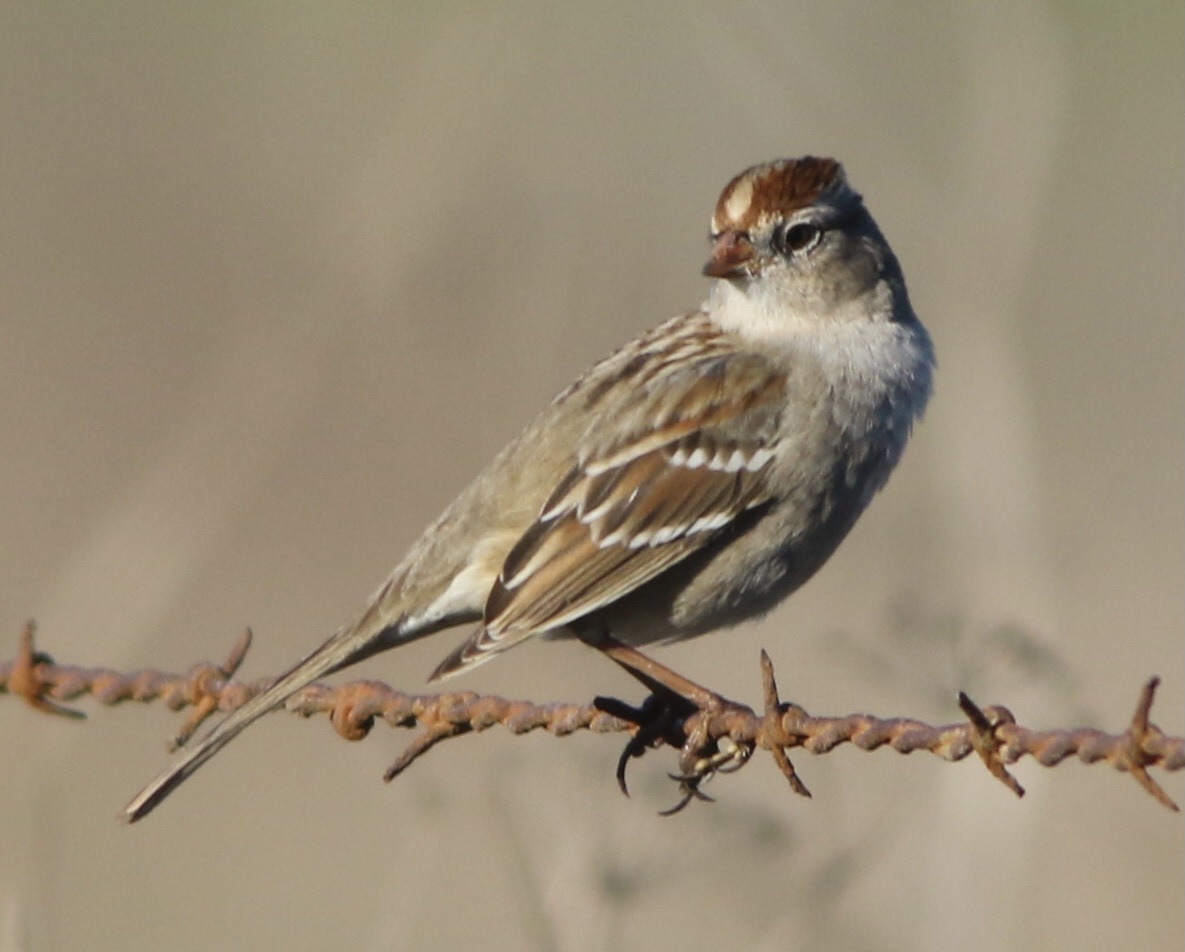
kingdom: Animalia
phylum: Chordata
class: Aves
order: Passeriformes
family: Passerellidae
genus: Zonotrichia
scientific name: Zonotrichia leucophrys
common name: White-crowned sparrow
